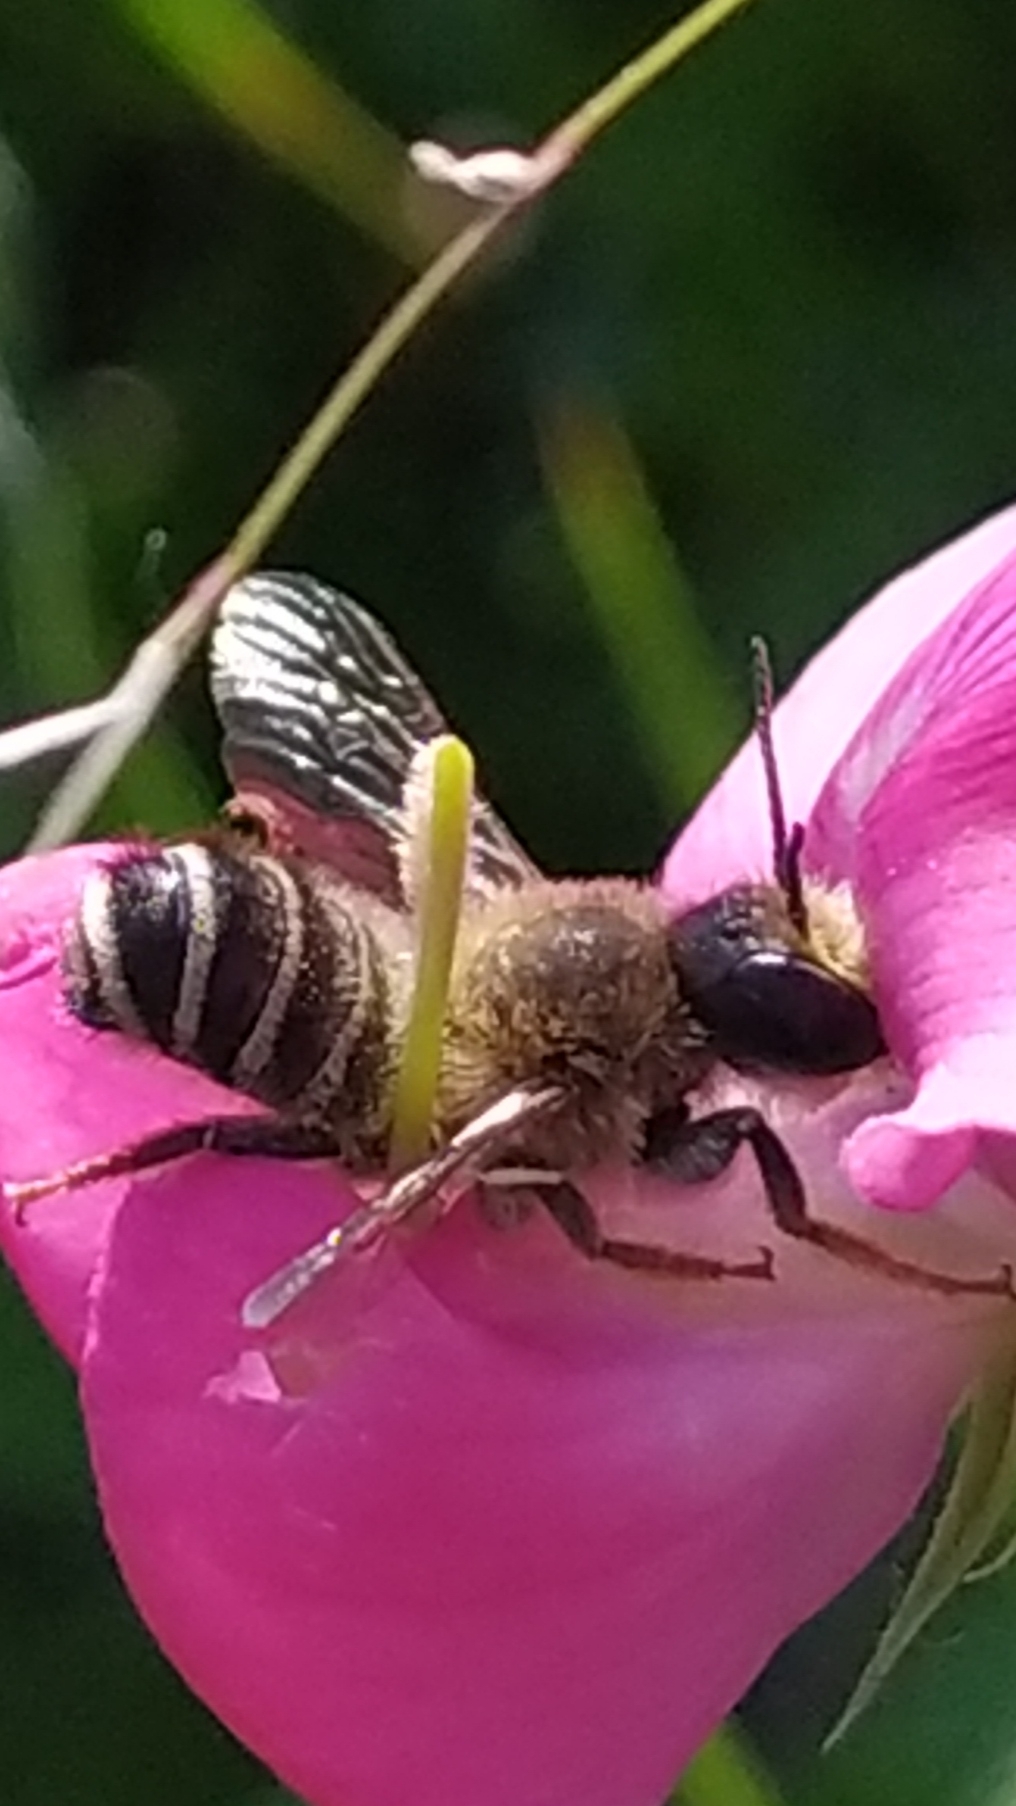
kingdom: Animalia
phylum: Arthropoda
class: Insecta
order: Hymenoptera
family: Megachilidae
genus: Megachile
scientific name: Megachile ericetorum
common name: Leafcutter bee
